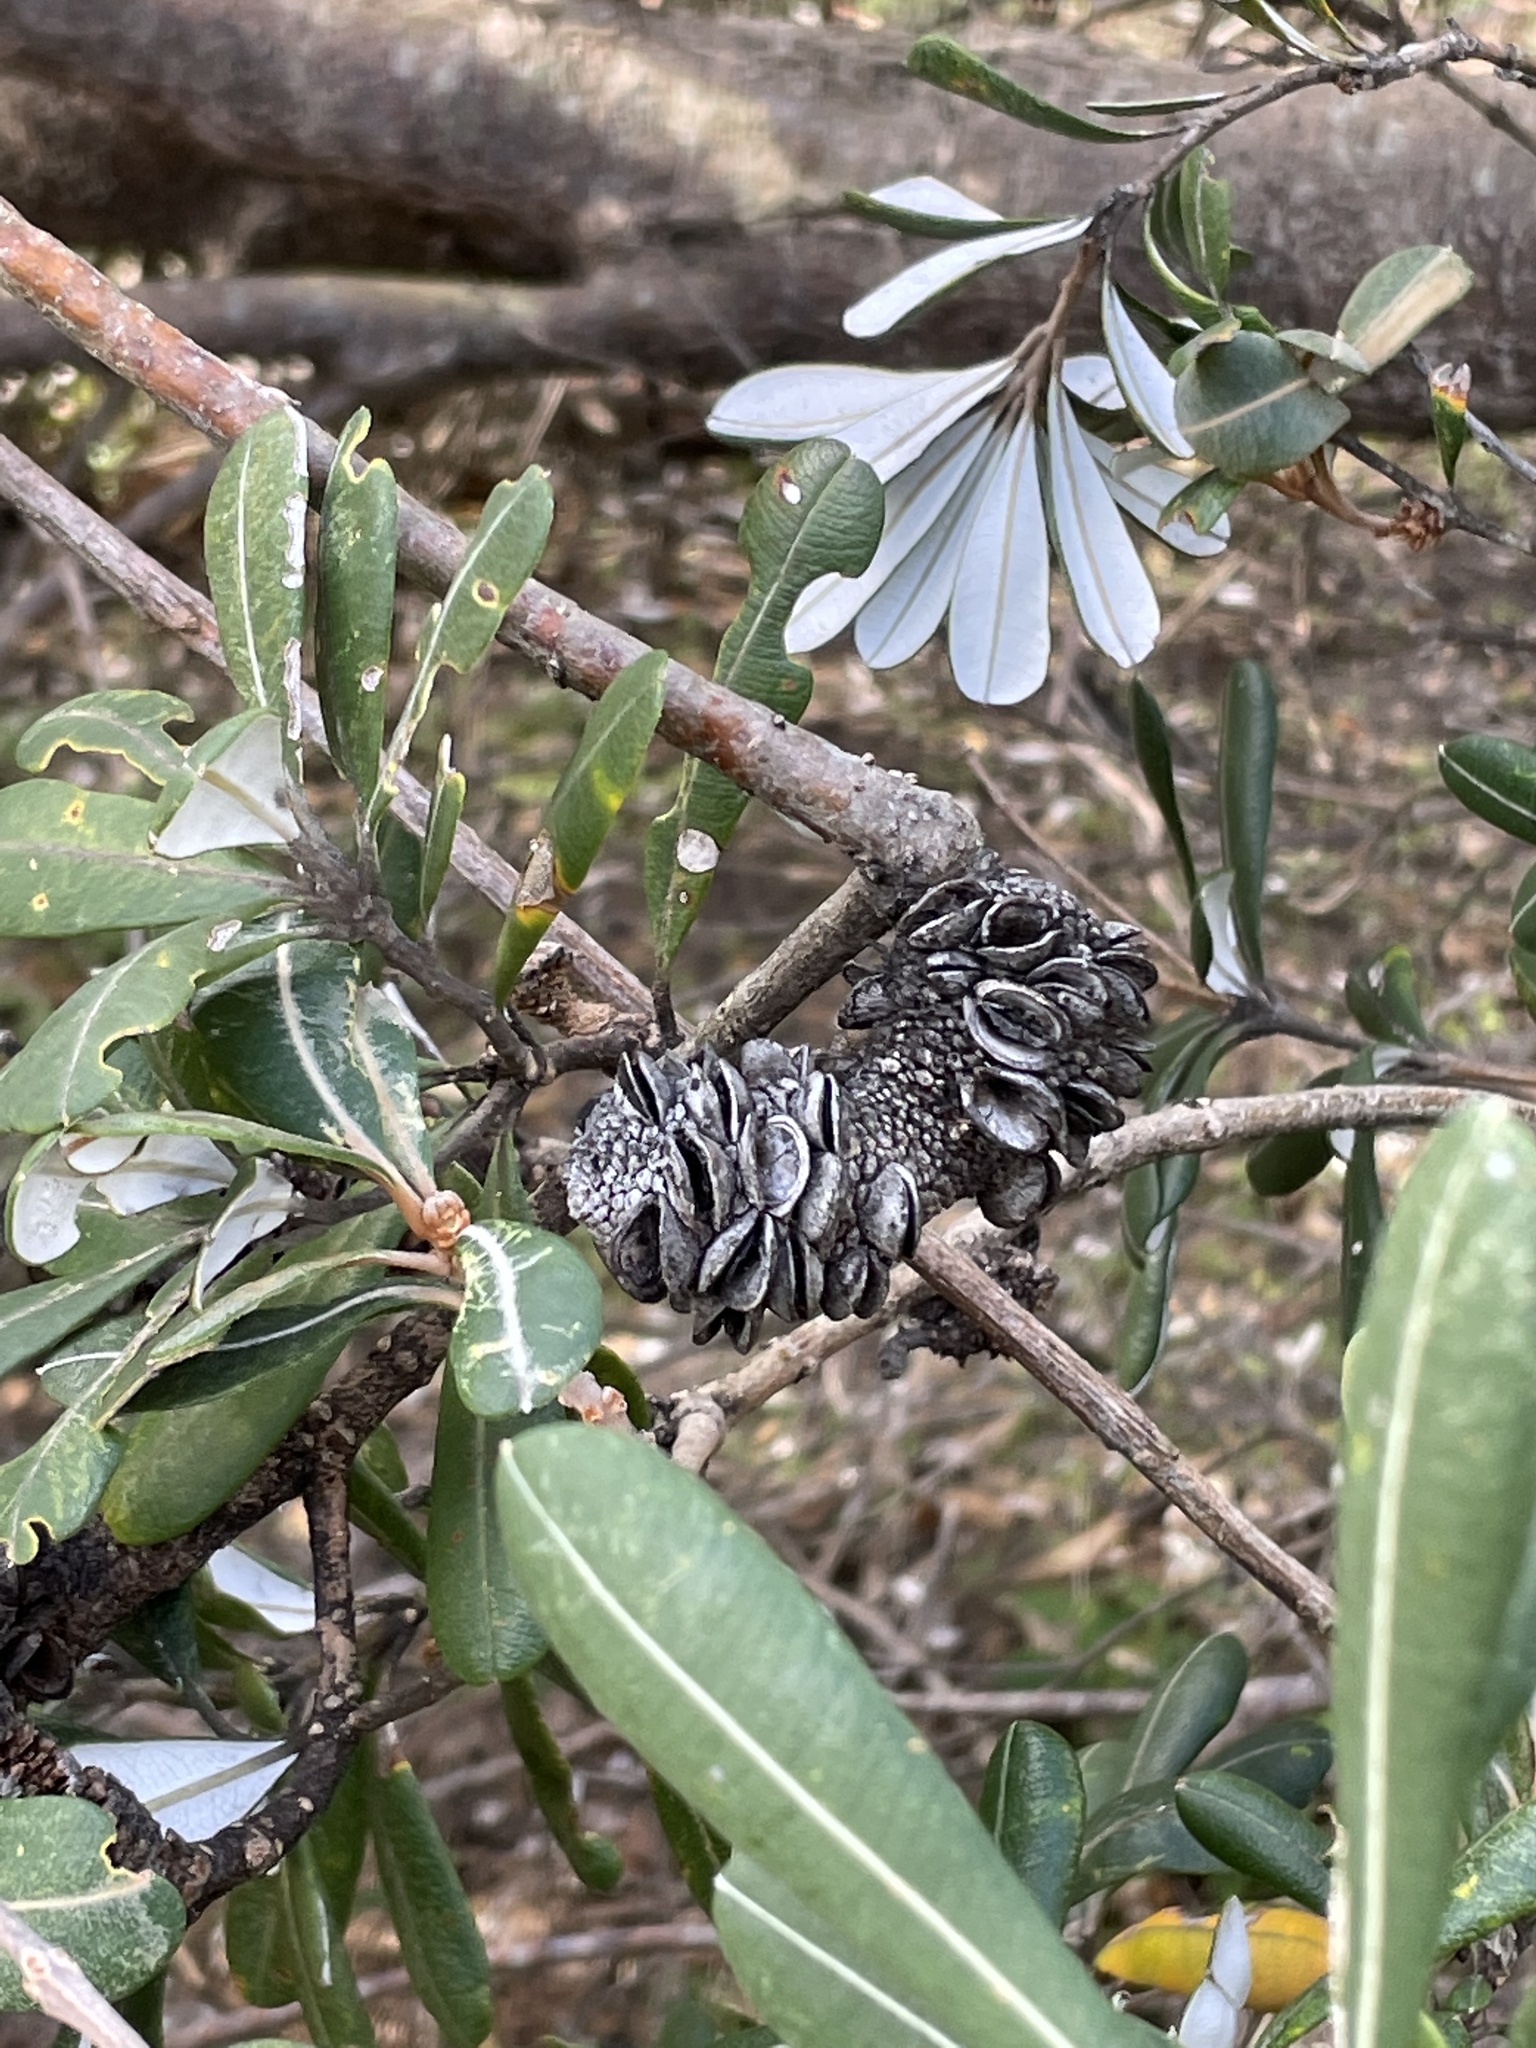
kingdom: Plantae
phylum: Tracheophyta
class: Magnoliopsida
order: Proteales
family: Proteaceae
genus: Banksia
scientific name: Banksia integrifolia
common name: White-honeysuckle
